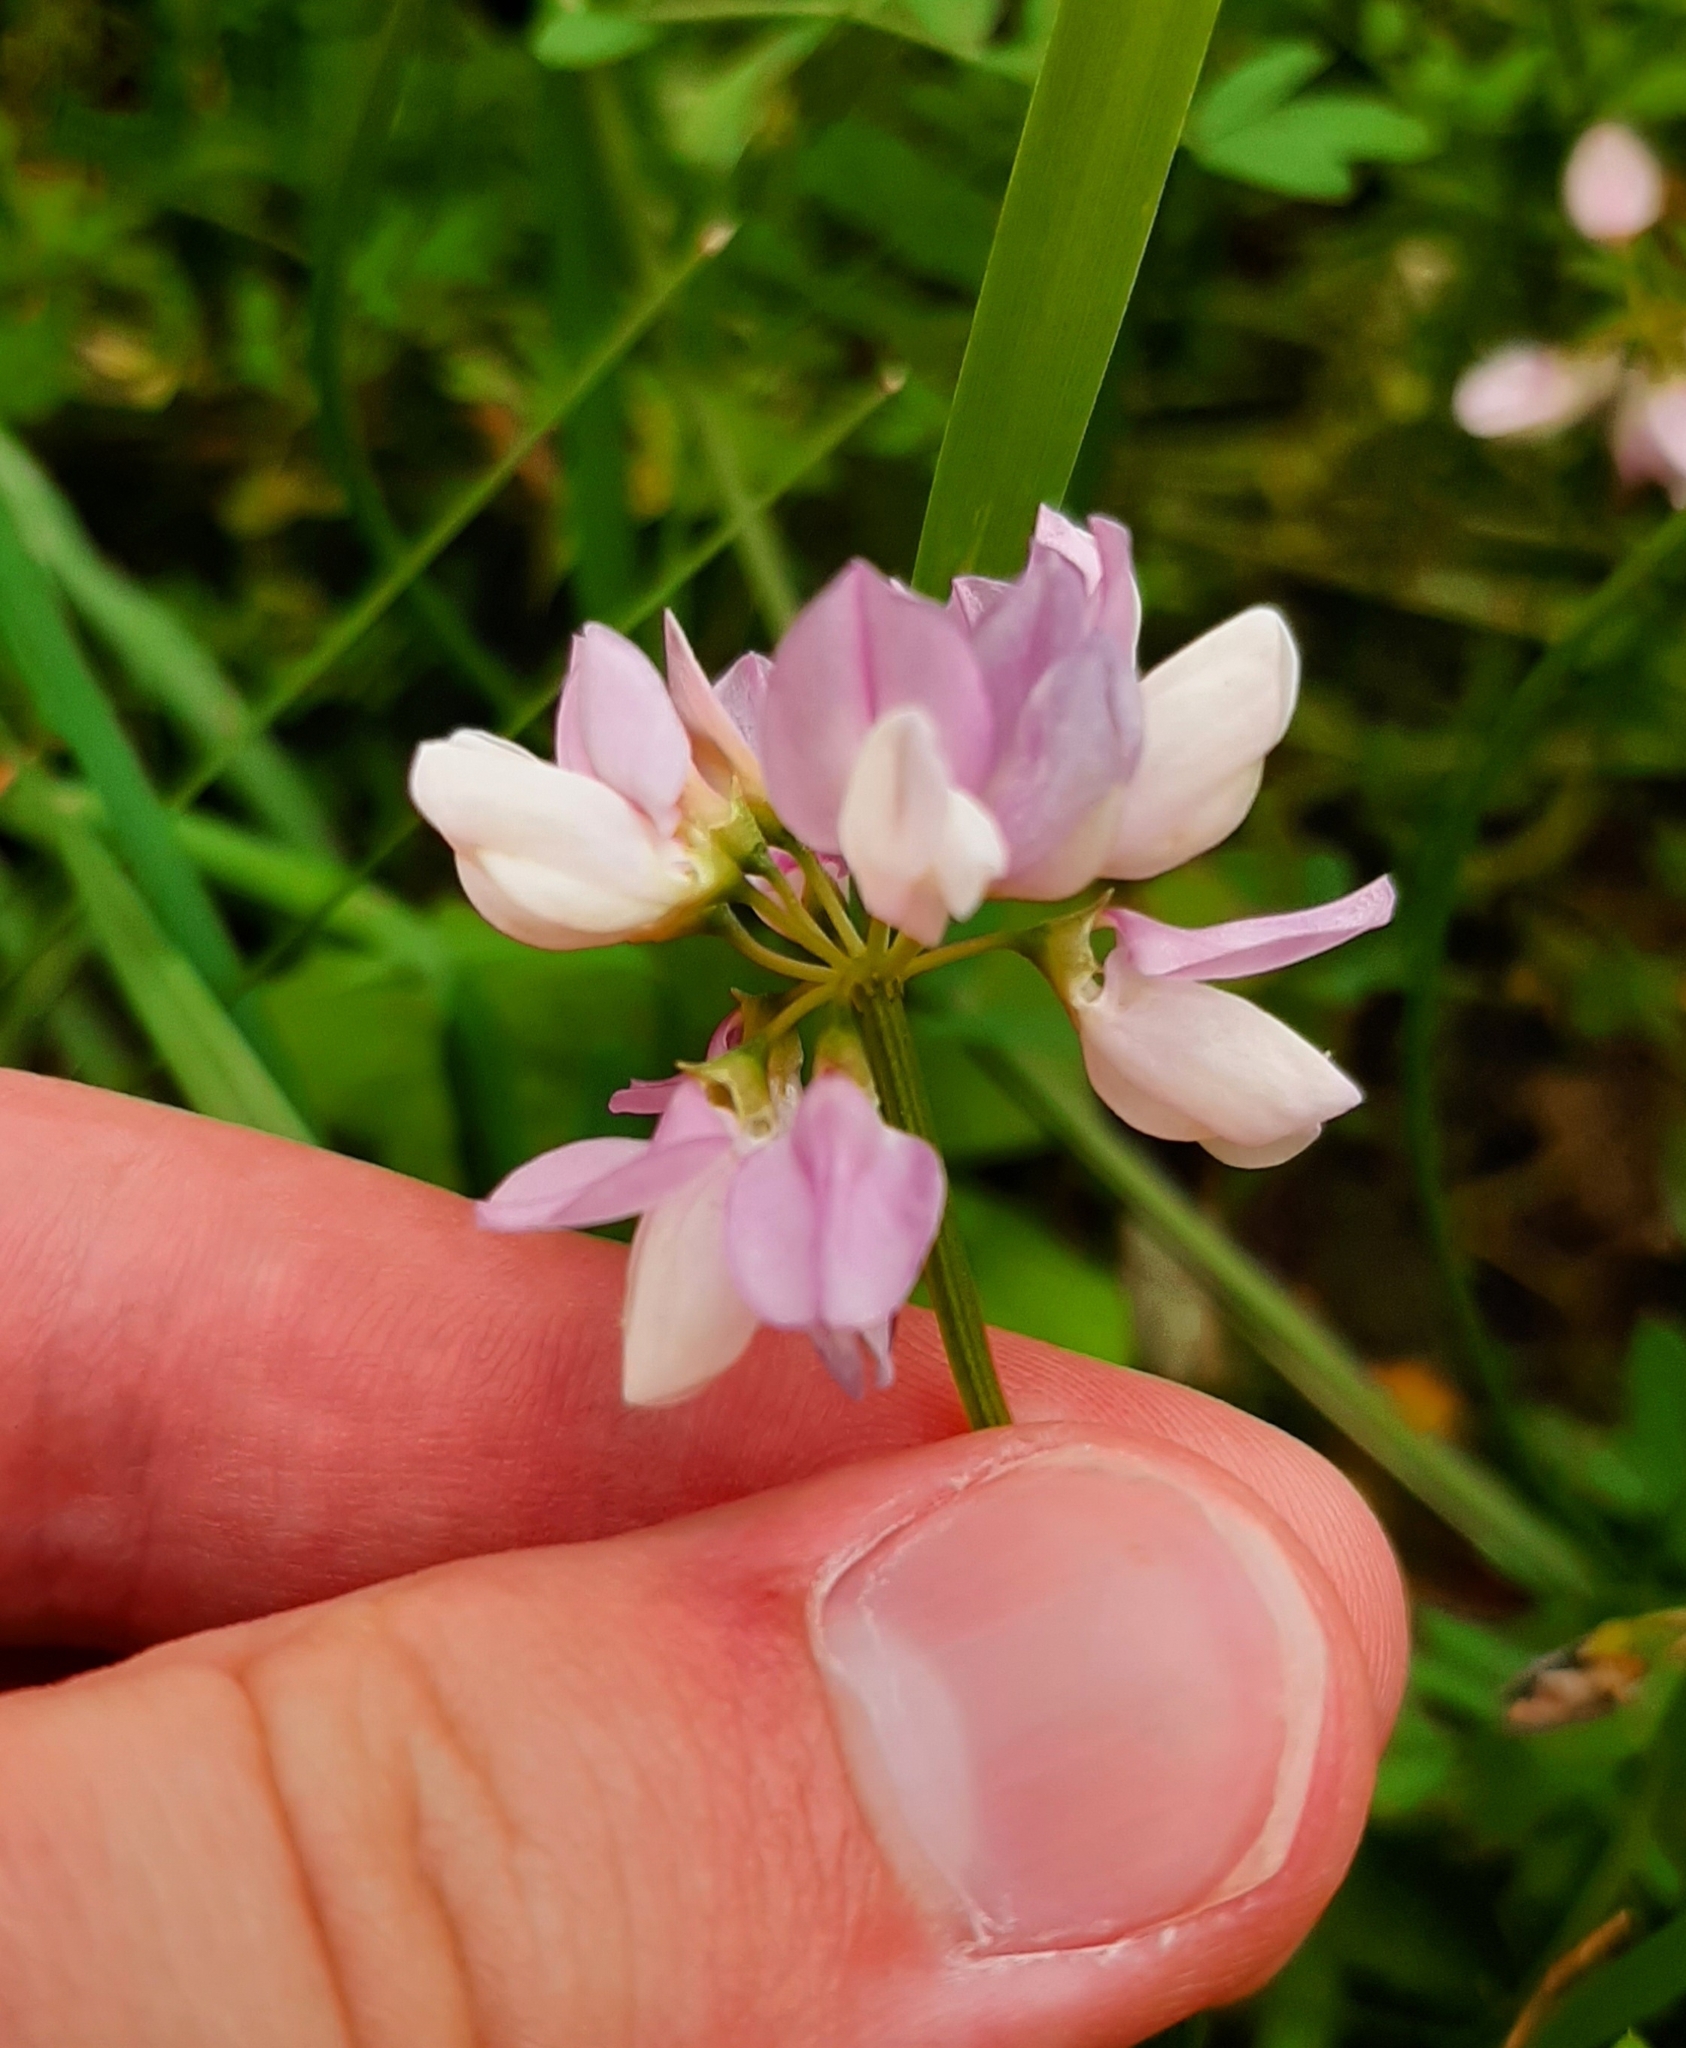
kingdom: Plantae
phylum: Tracheophyta
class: Magnoliopsida
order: Fabales
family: Fabaceae
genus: Coronilla
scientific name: Coronilla varia
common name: Crownvetch
